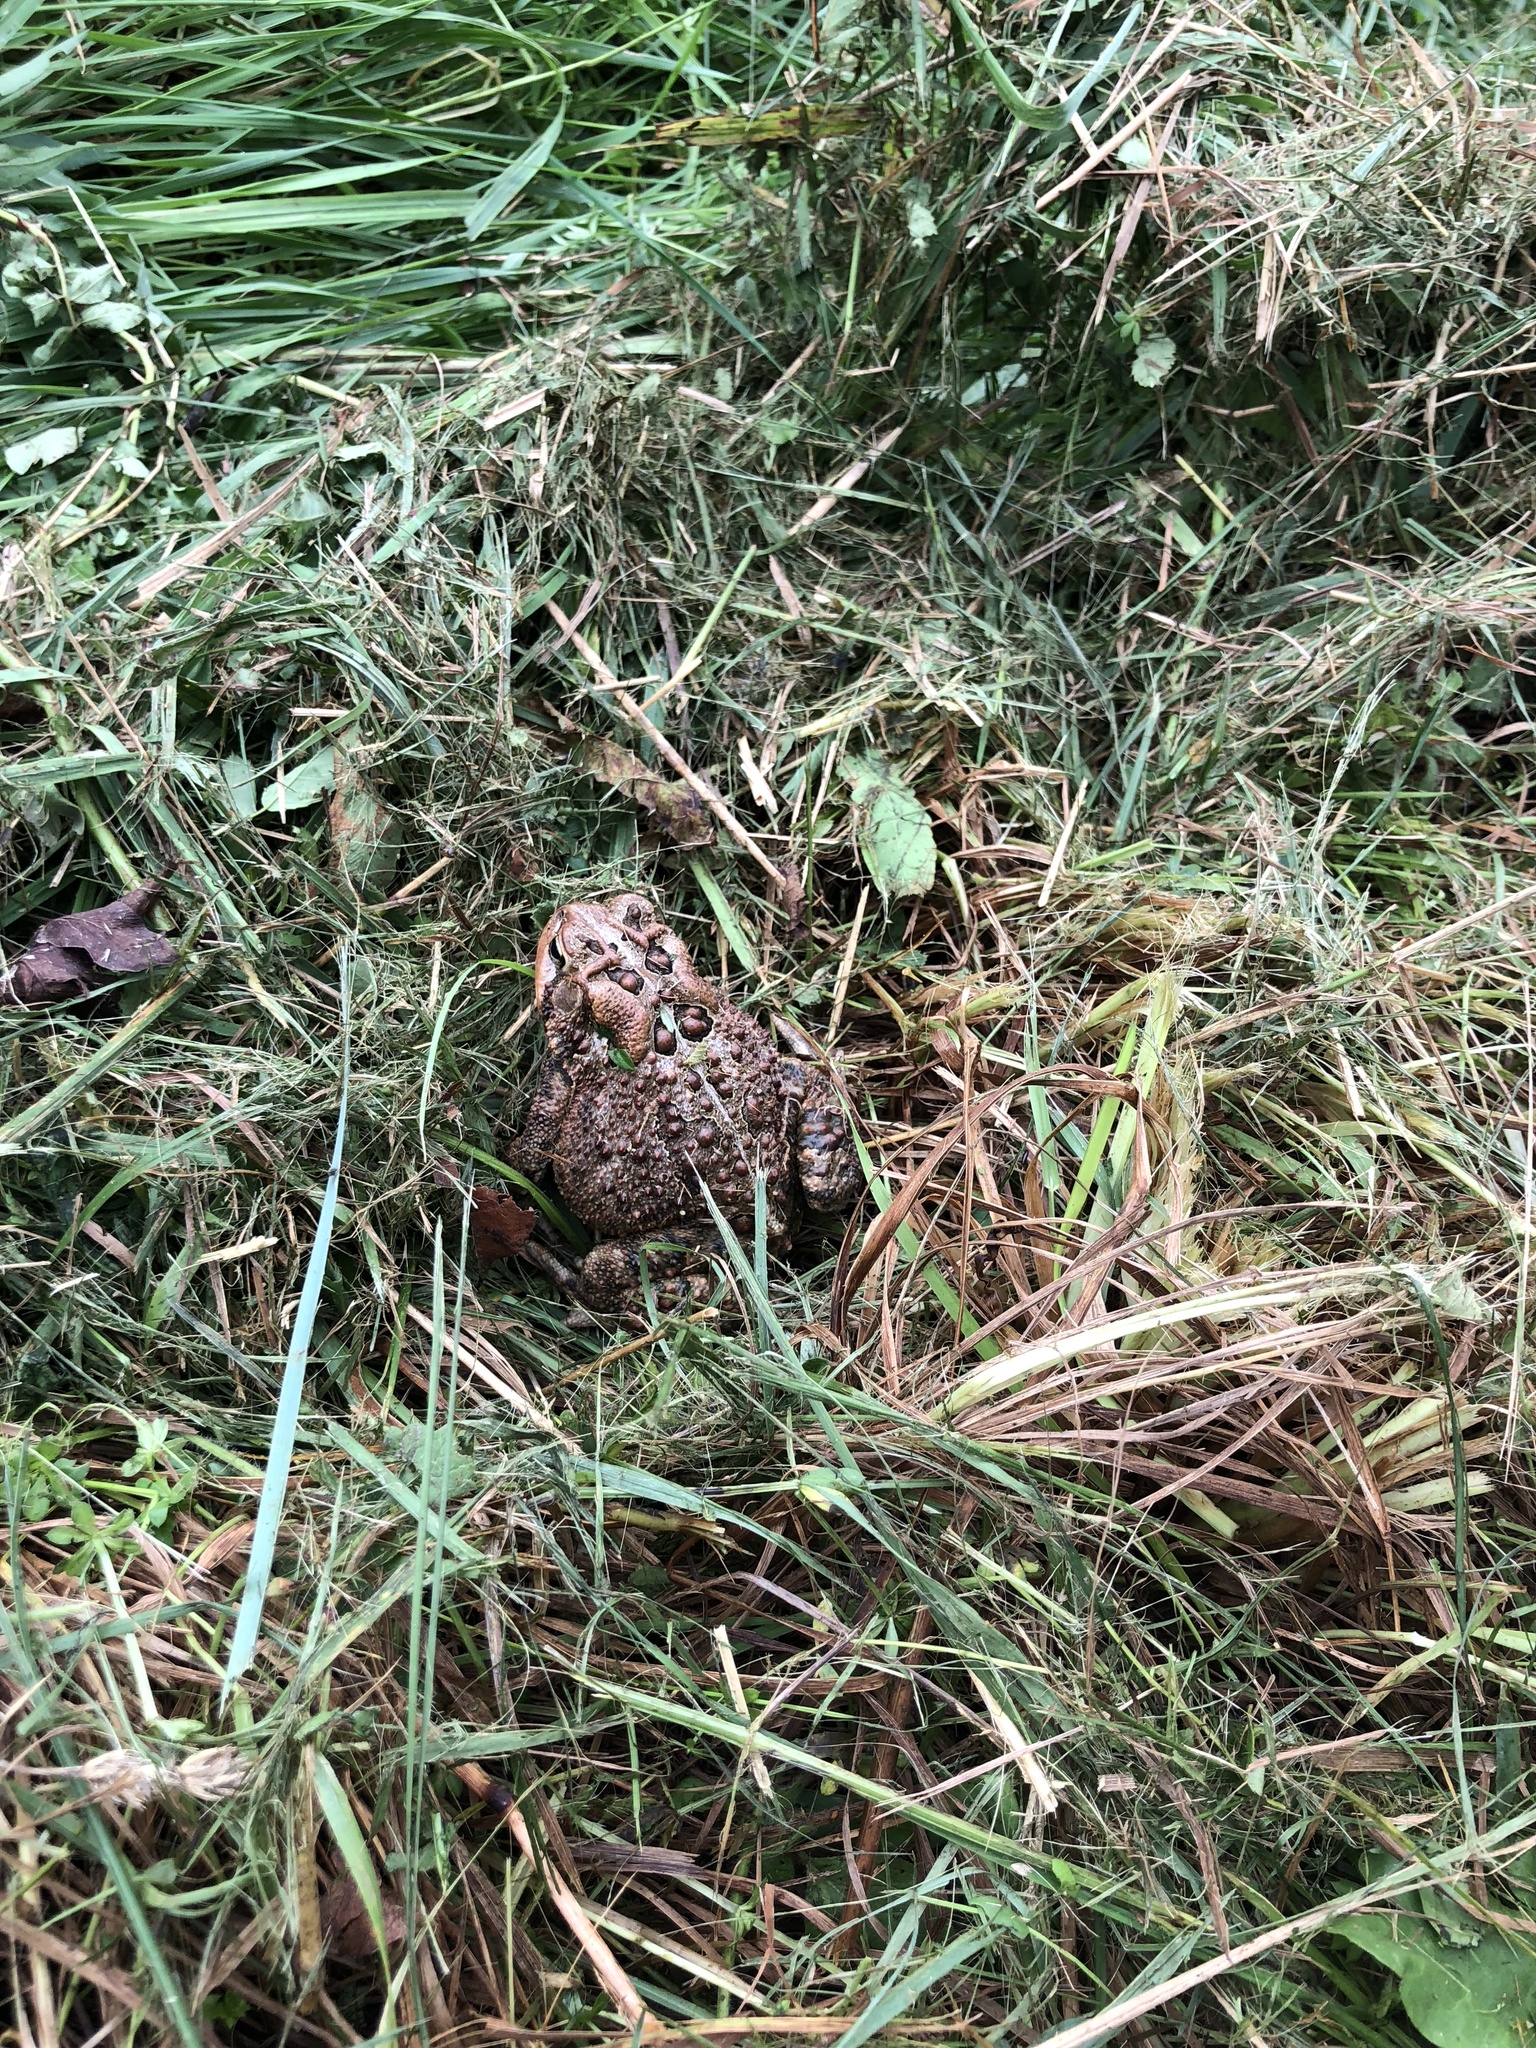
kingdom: Animalia
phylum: Chordata
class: Amphibia
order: Anura
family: Bufonidae
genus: Anaxyrus
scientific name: Anaxyrus americanus
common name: American toad
